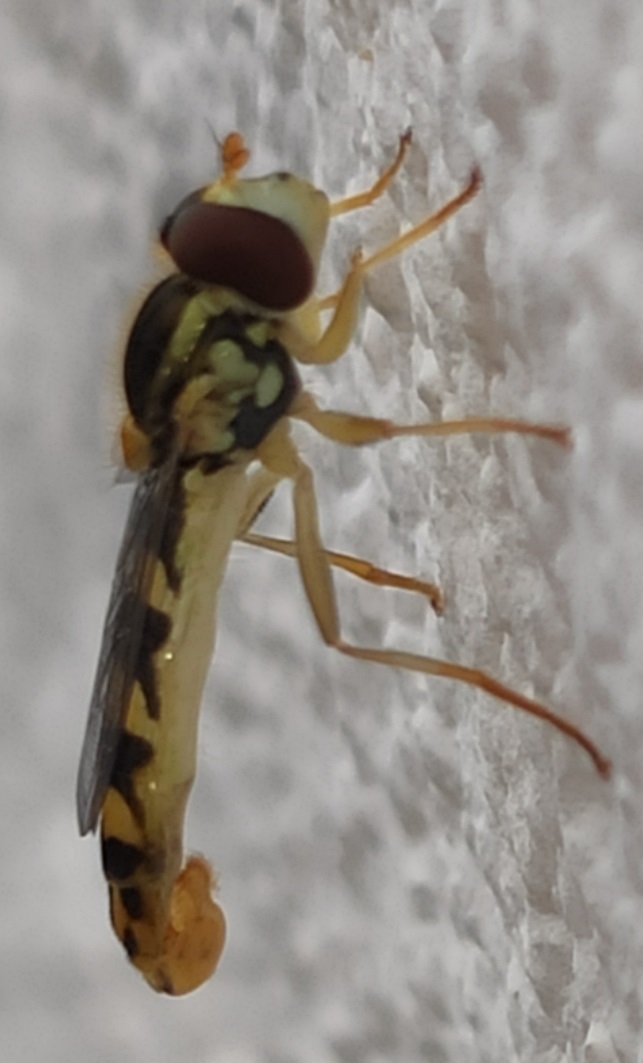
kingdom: Animalia
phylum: Arthropoda
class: Insecta
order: Diptera
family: Syrphidae
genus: Sphaerophoria
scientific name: Sphaerophoria scripta
